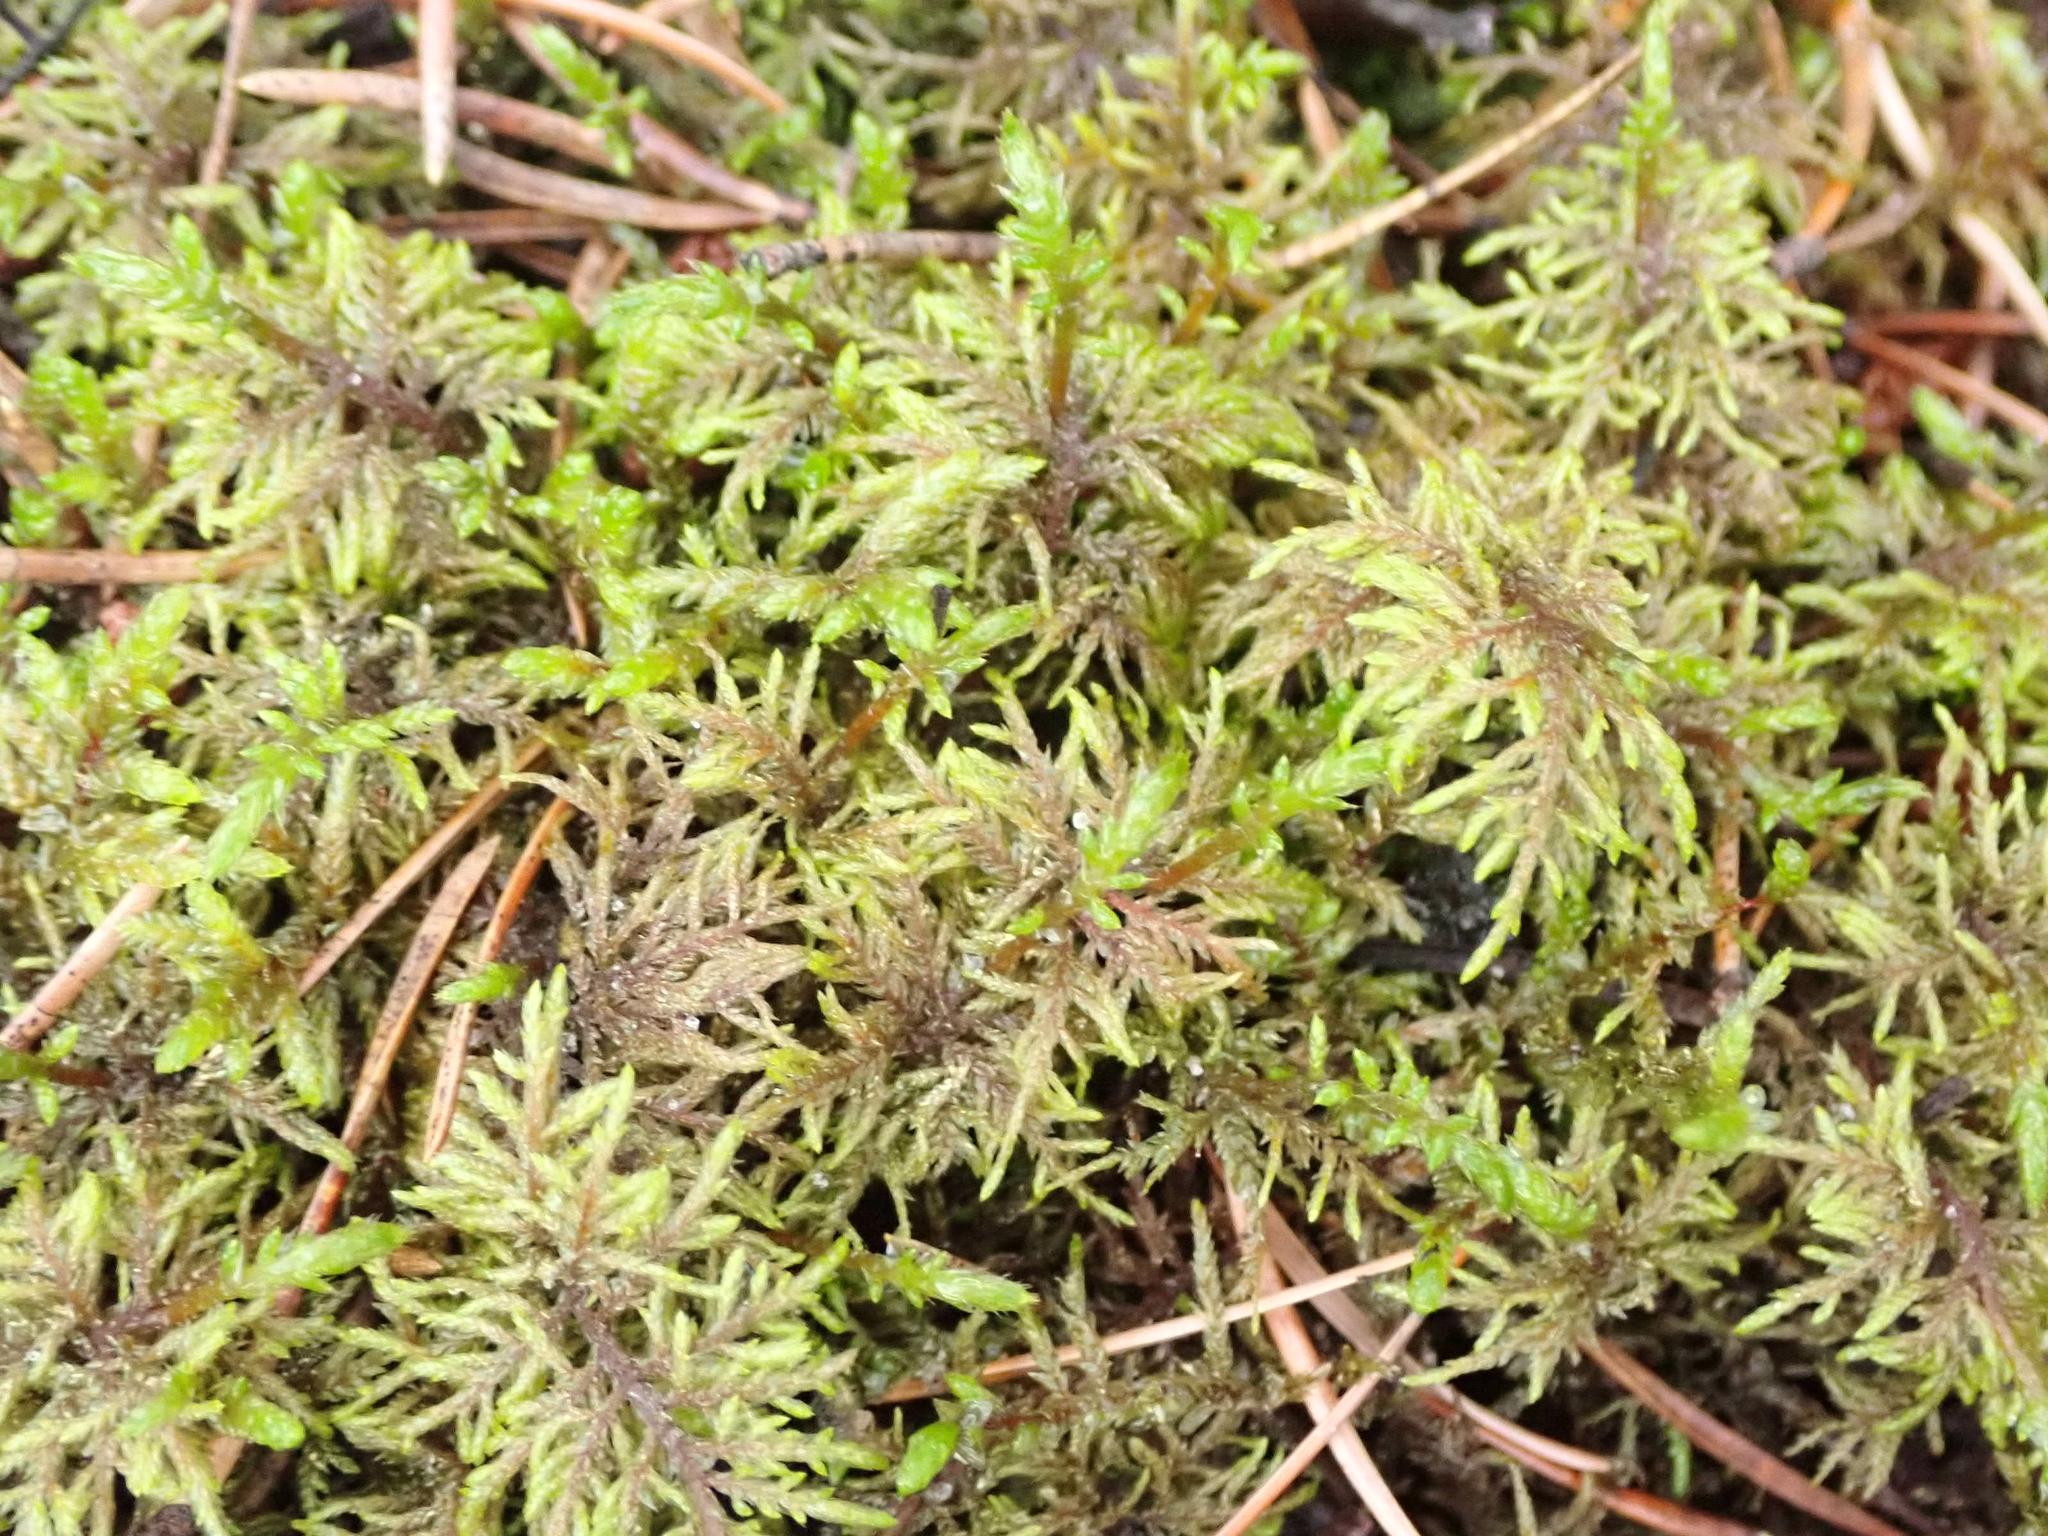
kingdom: Plantae
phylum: Bryophyta
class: Bryopsida
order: Hypnales
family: Hylocomiaceae
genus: Hylocomium
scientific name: Hylocomium splendens
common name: Stairstep moss
